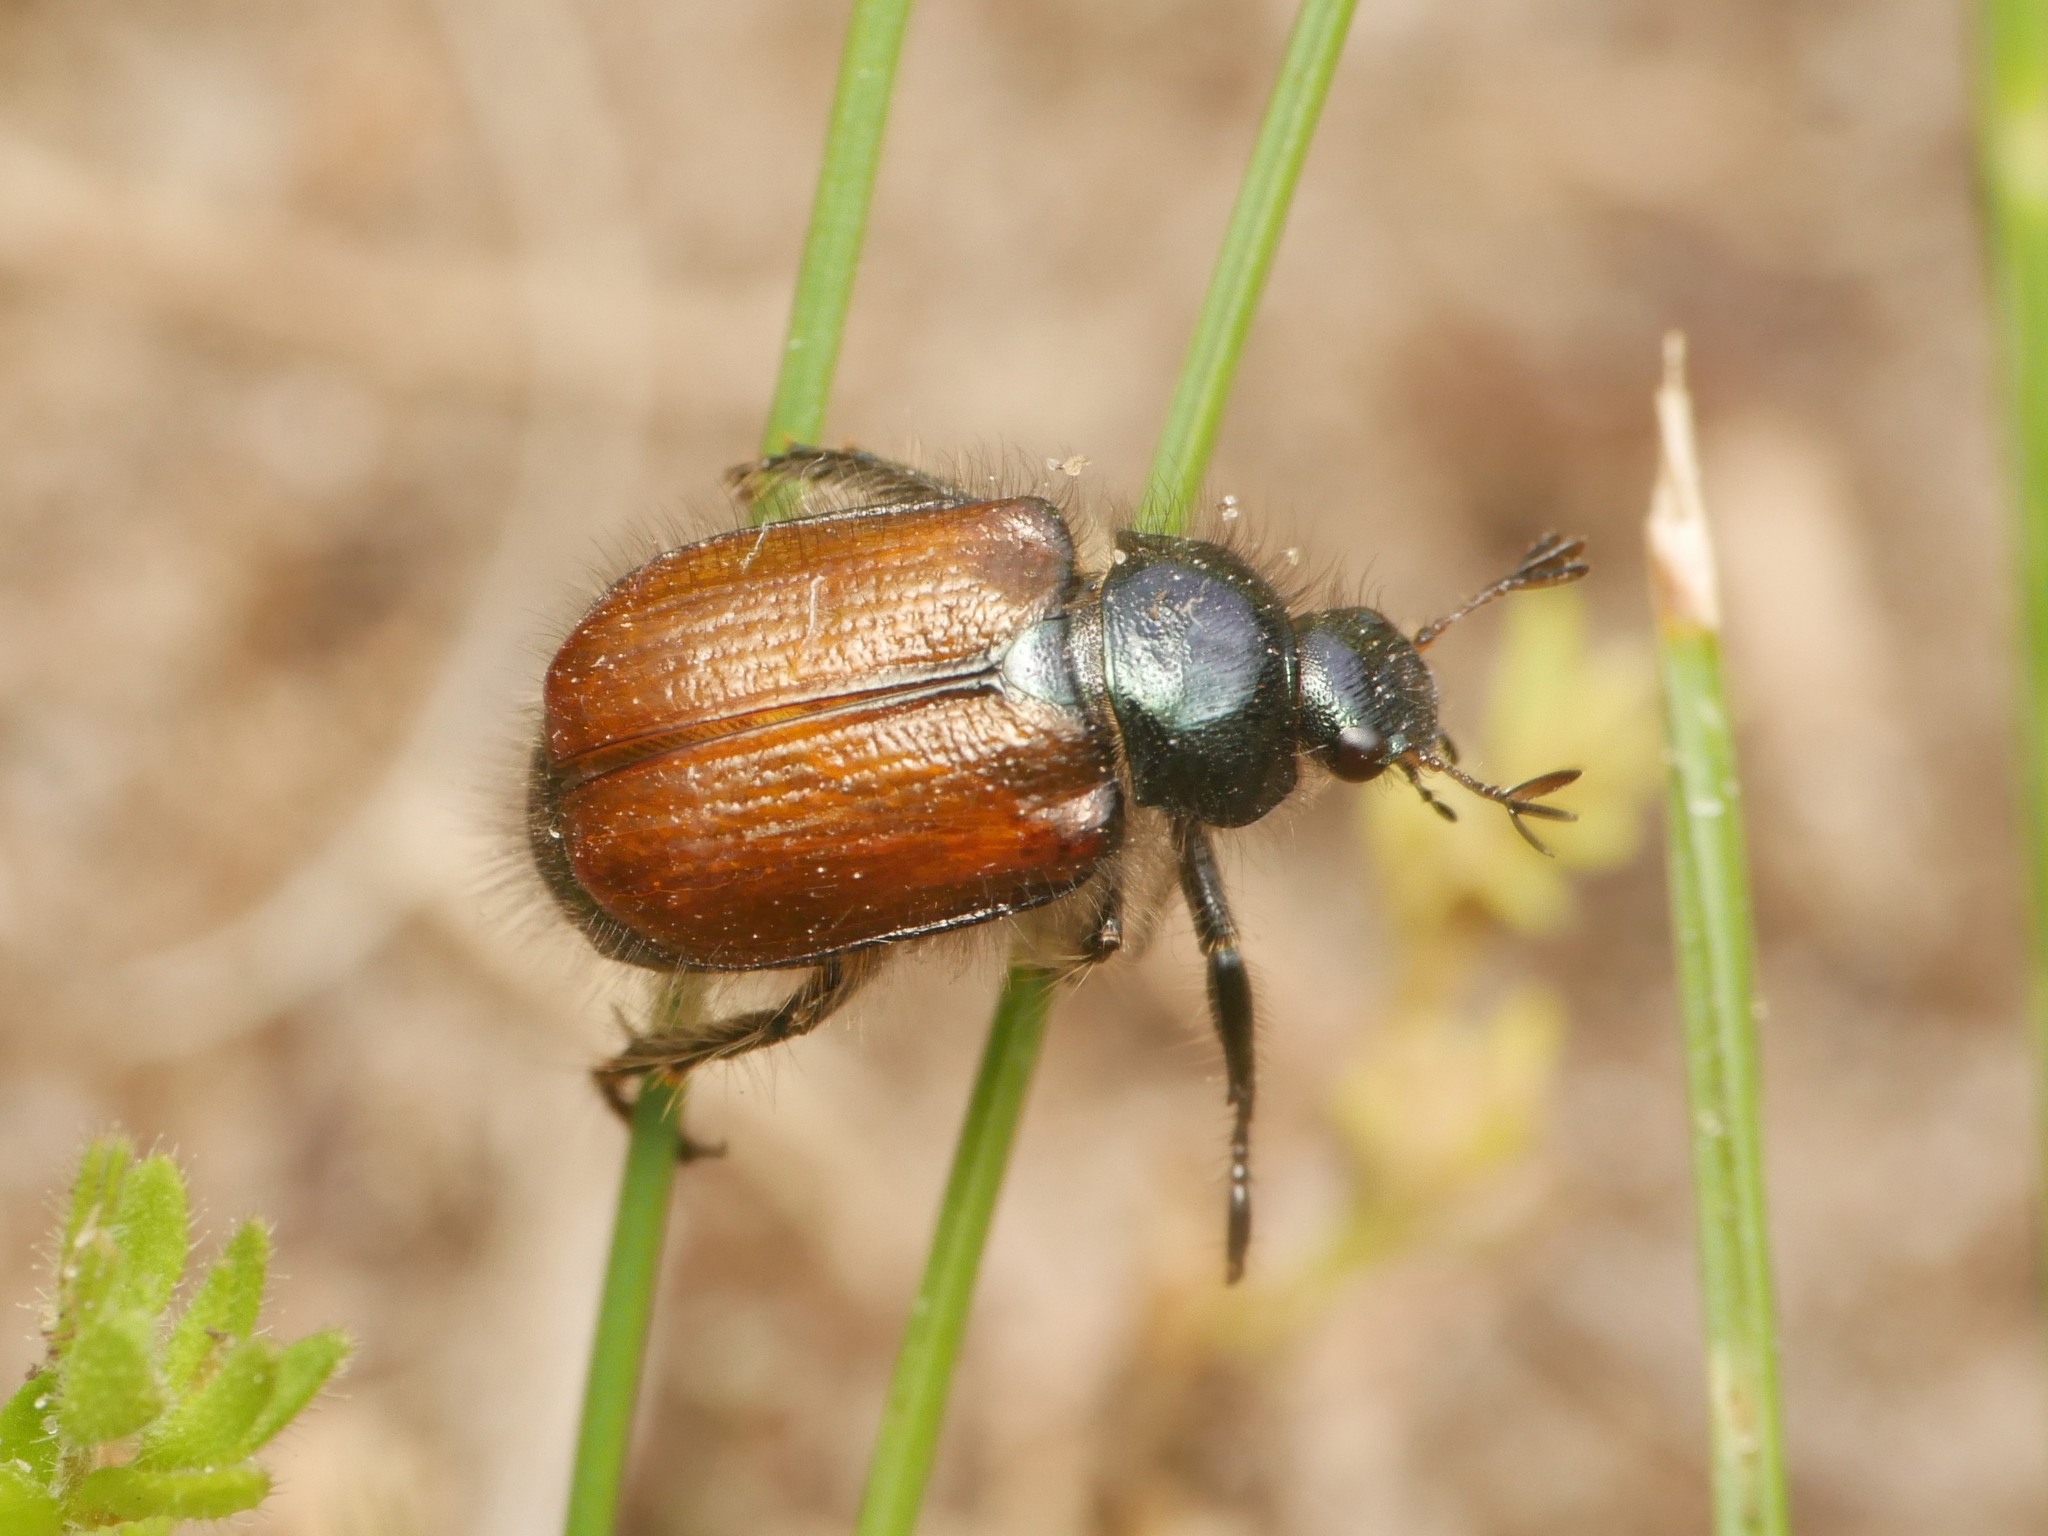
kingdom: Animalia
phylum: Arthropoda
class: Insecta
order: Coleoptera
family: Scarabaeidae
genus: Phyllopertha
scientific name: Phyllopertha horticola
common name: Garden chafer
